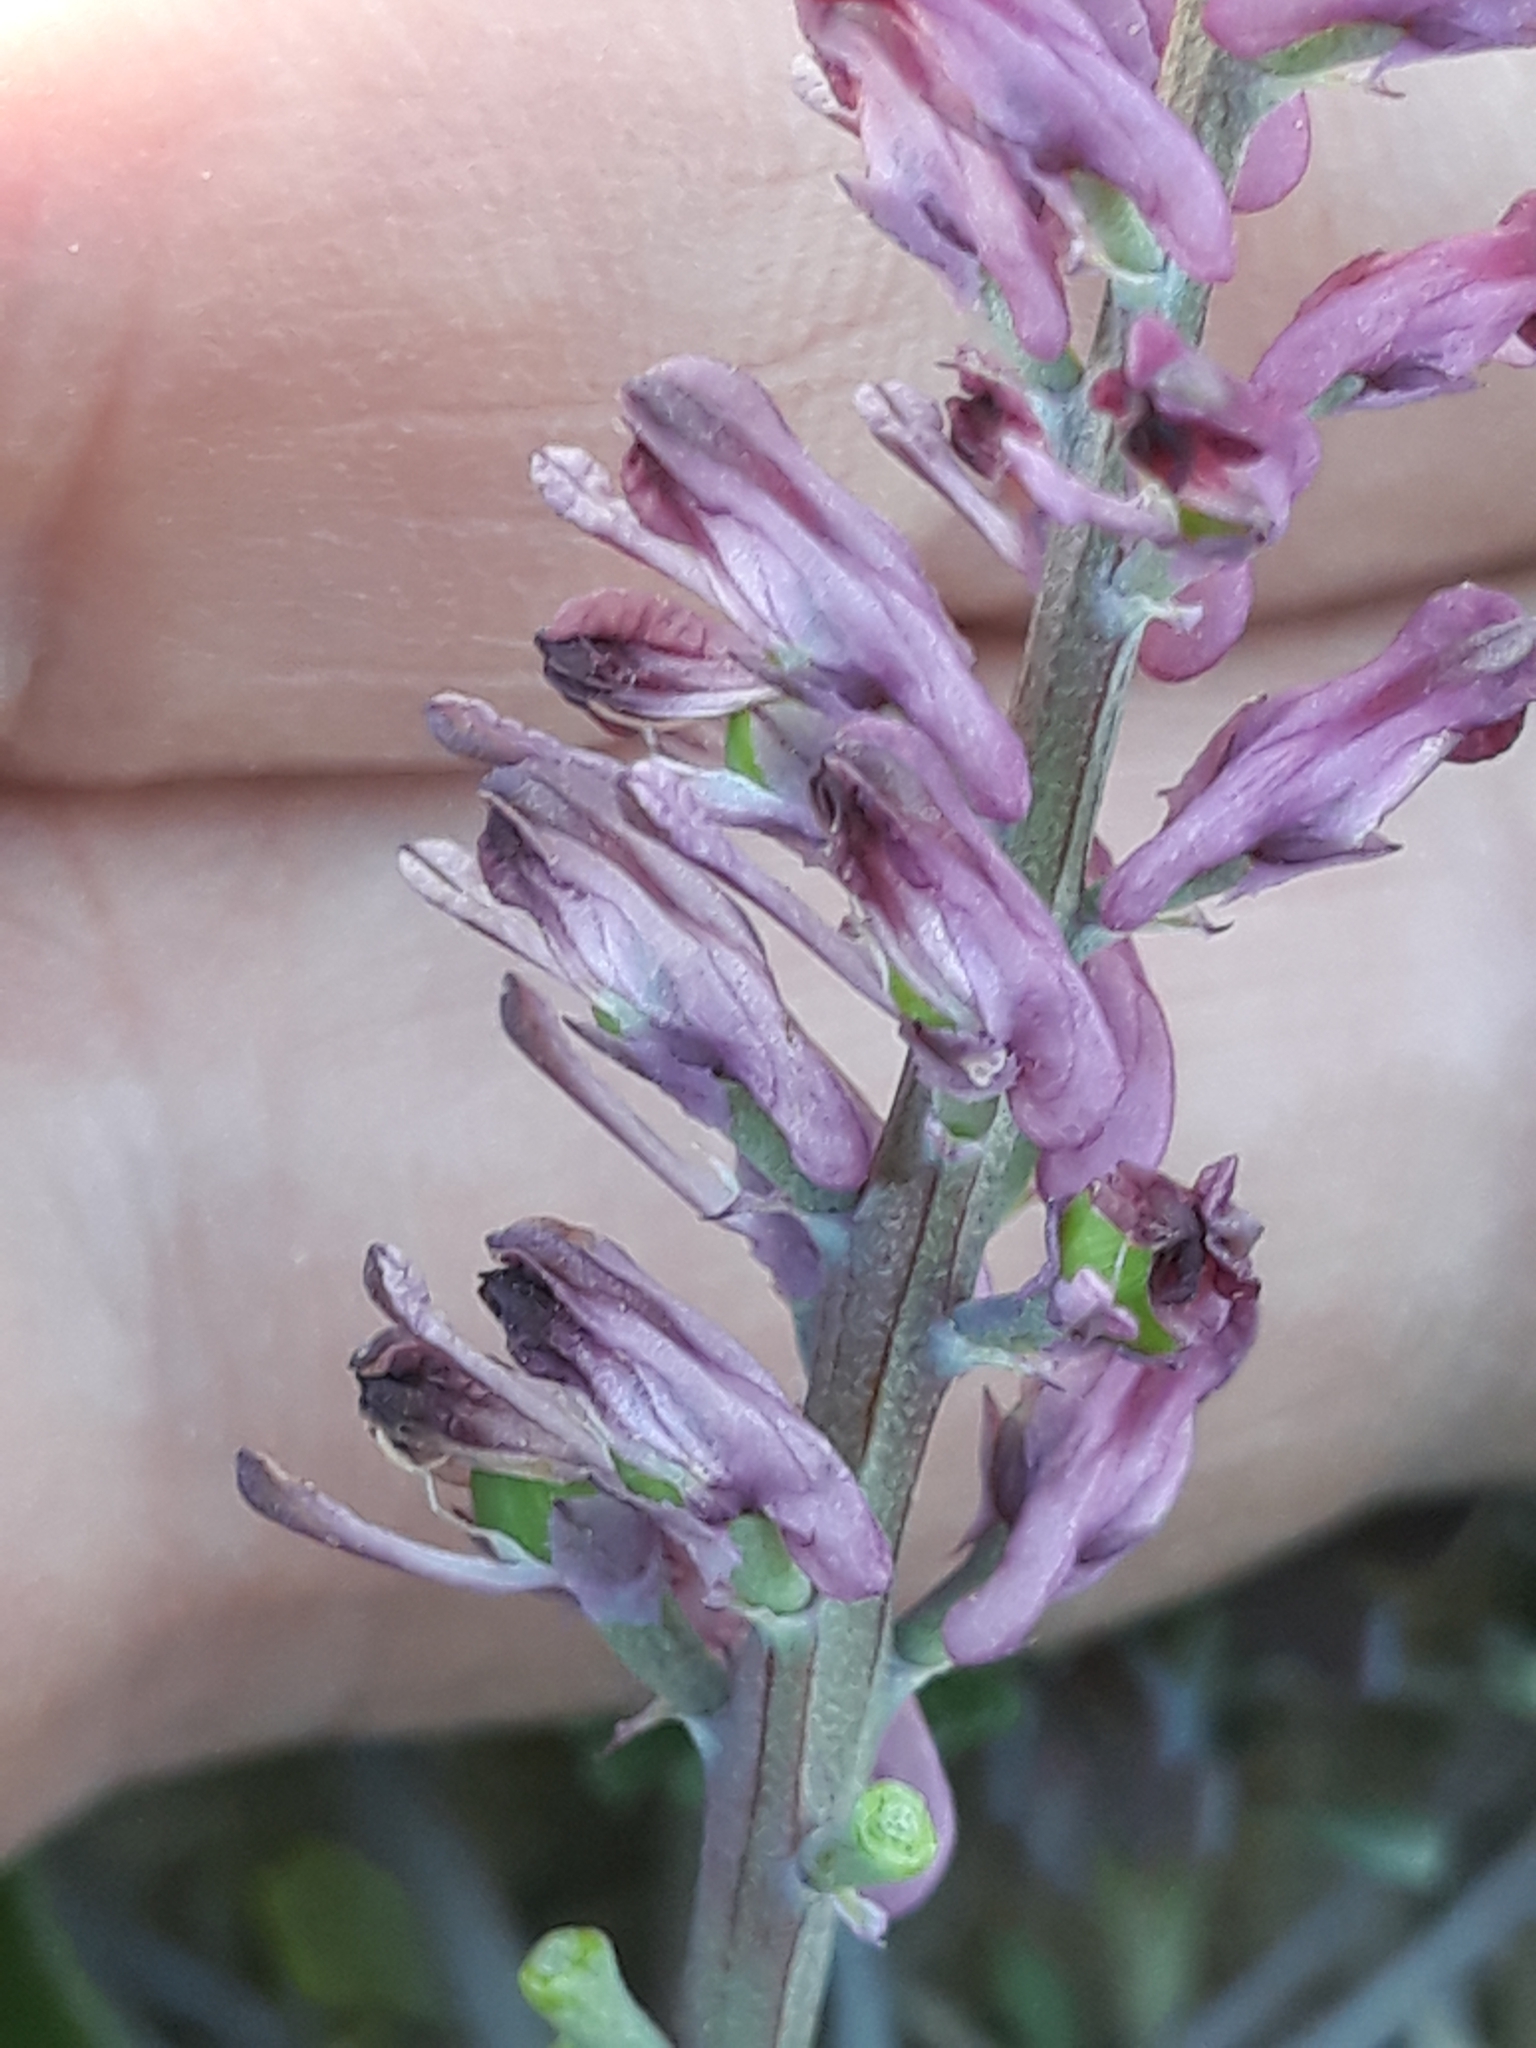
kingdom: Plantae
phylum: Tracheophyta
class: Magnoliopsida
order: Ranunculales
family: Papaveraceae
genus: Fumaria
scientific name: Fumaria officinalis
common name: Common fumitory
